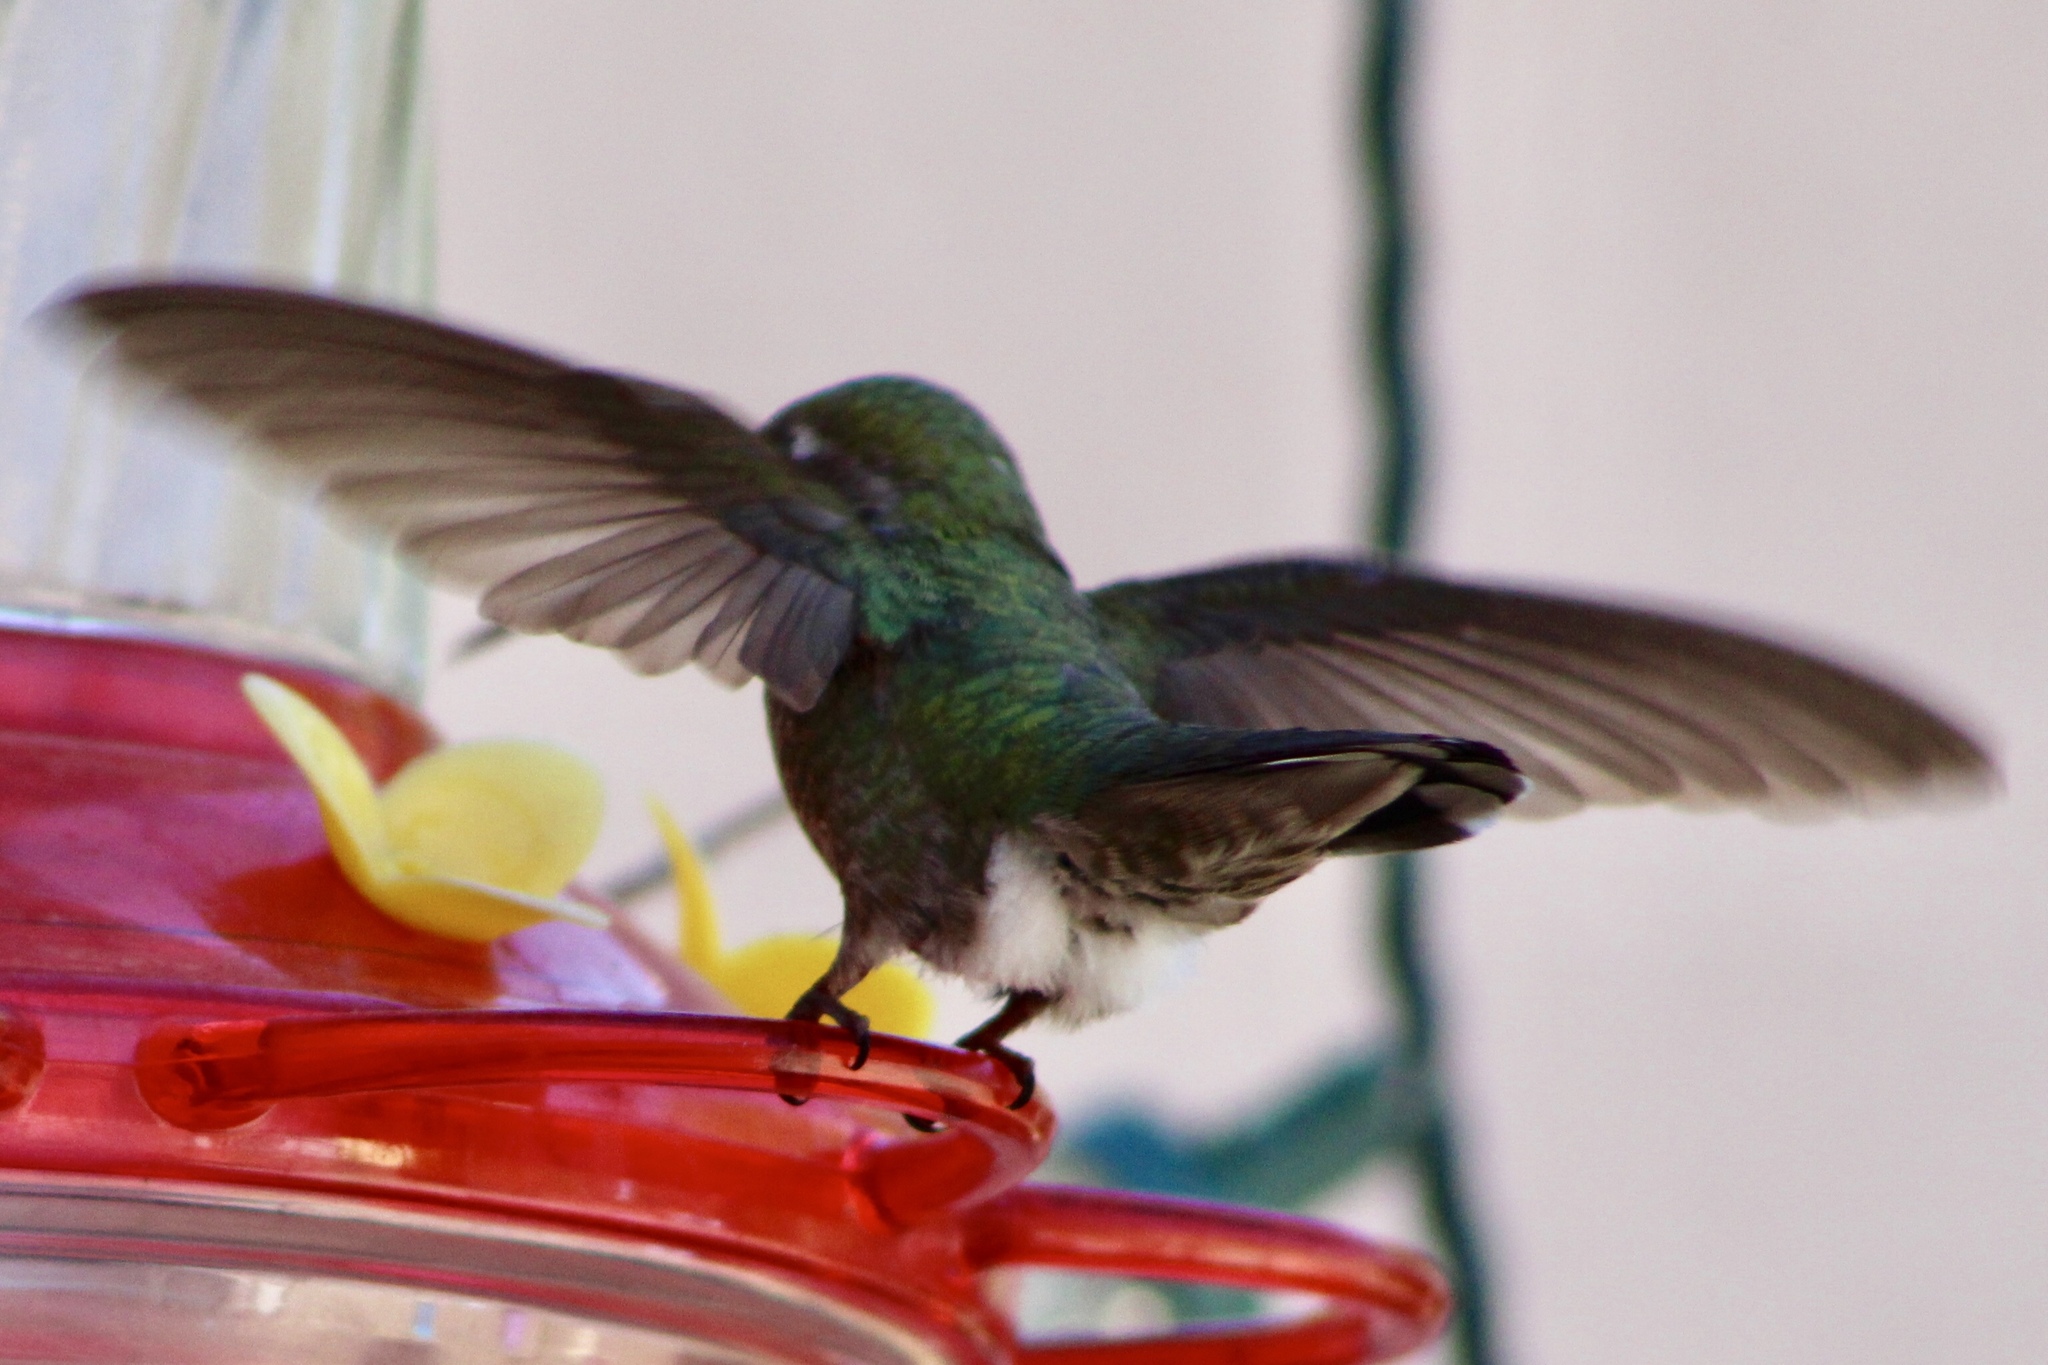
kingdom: Animalia
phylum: Chordata
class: Aves
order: Apodiformes
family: Trochilidae
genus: Calypte
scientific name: Calypte anna
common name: Anna's hummingbird
